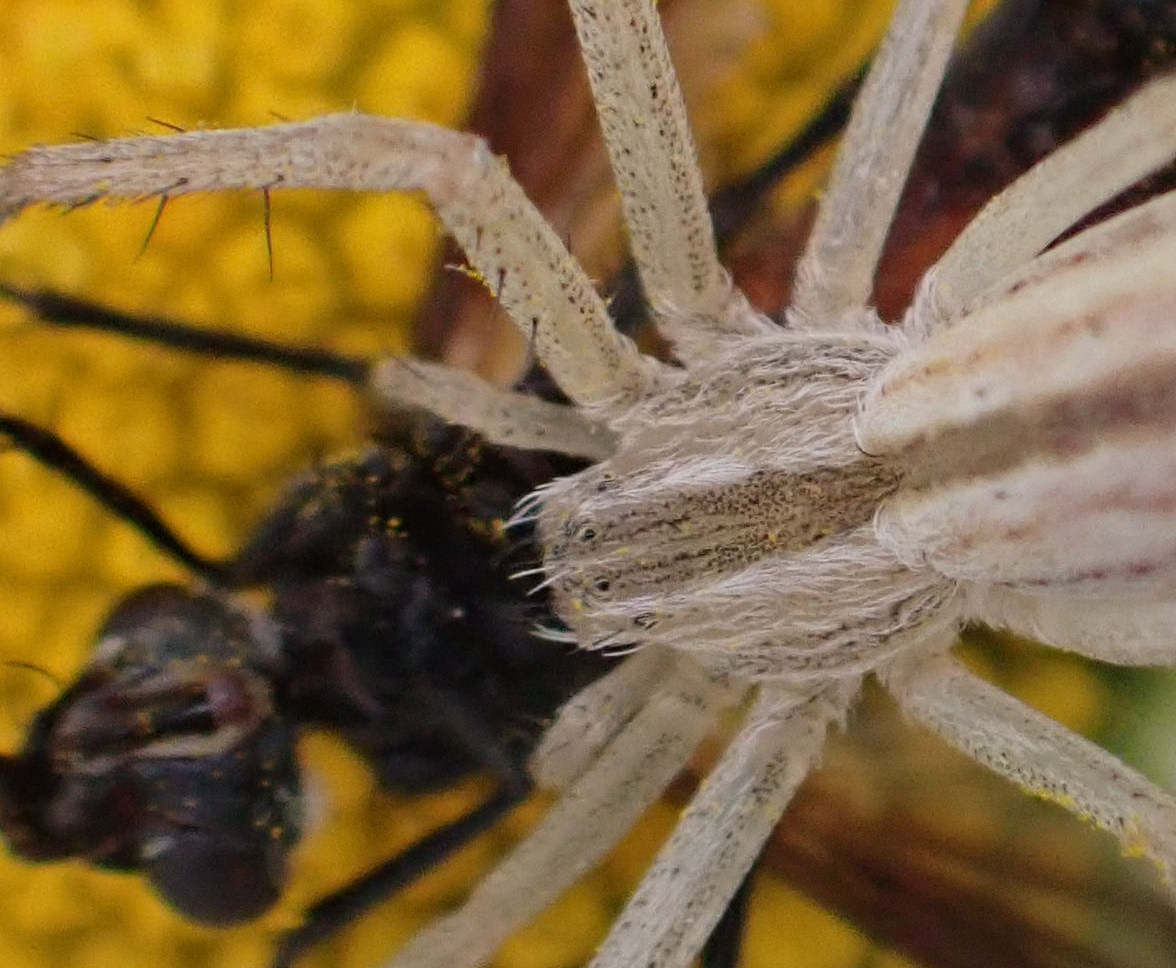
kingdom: Animalia
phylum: Arthropoda
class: Arachnida
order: Araneae
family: Philodromidae
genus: Tibellus
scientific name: Tibellus oblongus
